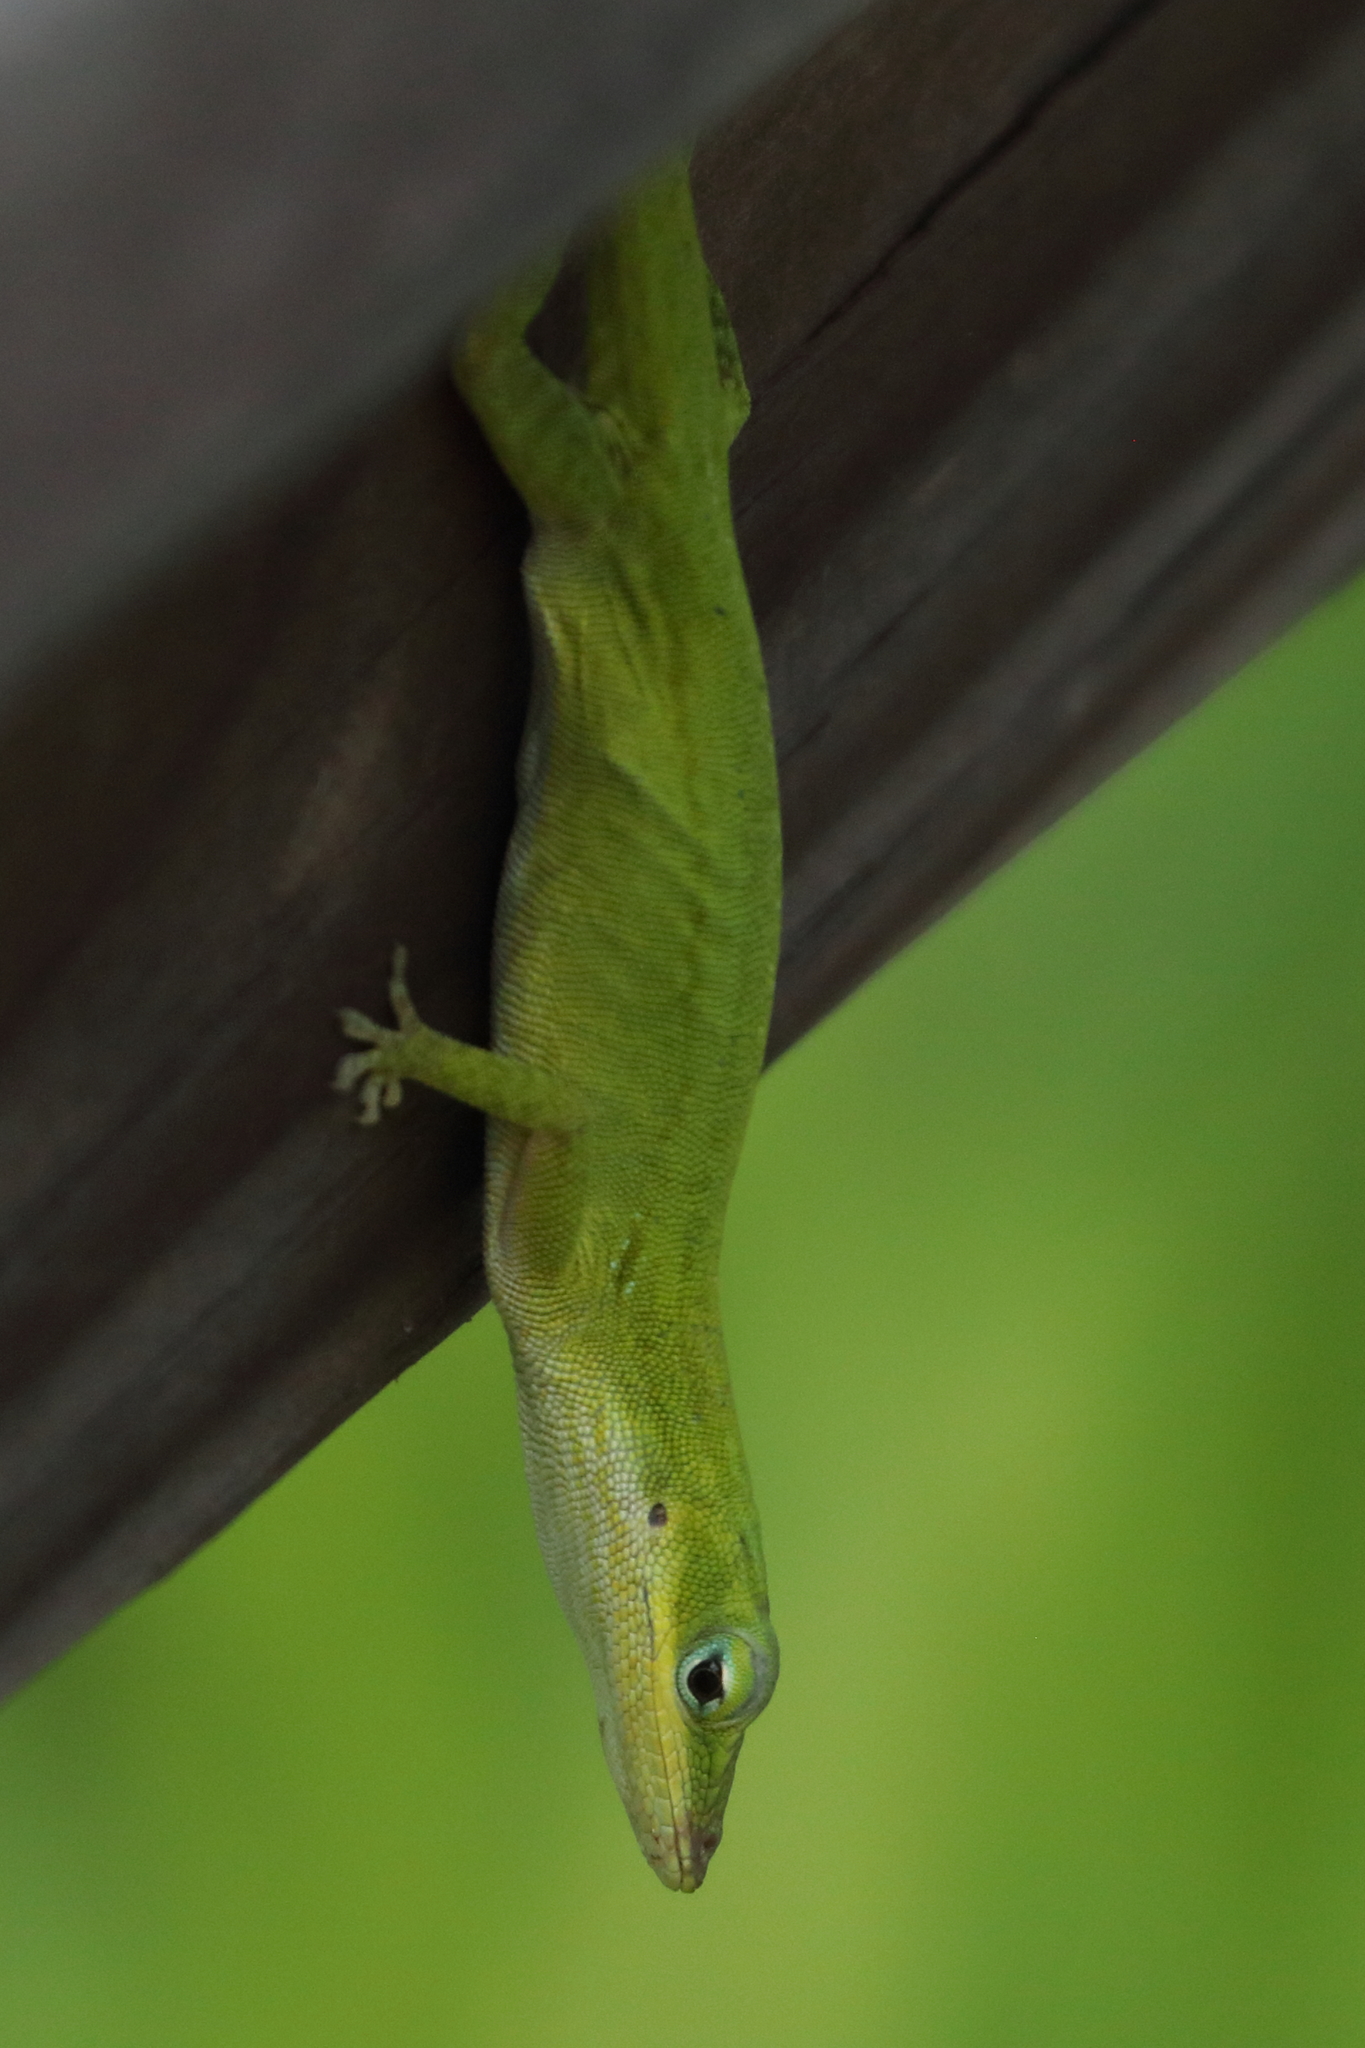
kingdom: Animalia
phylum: Chordata
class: Squamata
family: Dactyloidae
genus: Anolis
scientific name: Anolis carolinensis
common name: Green anole
